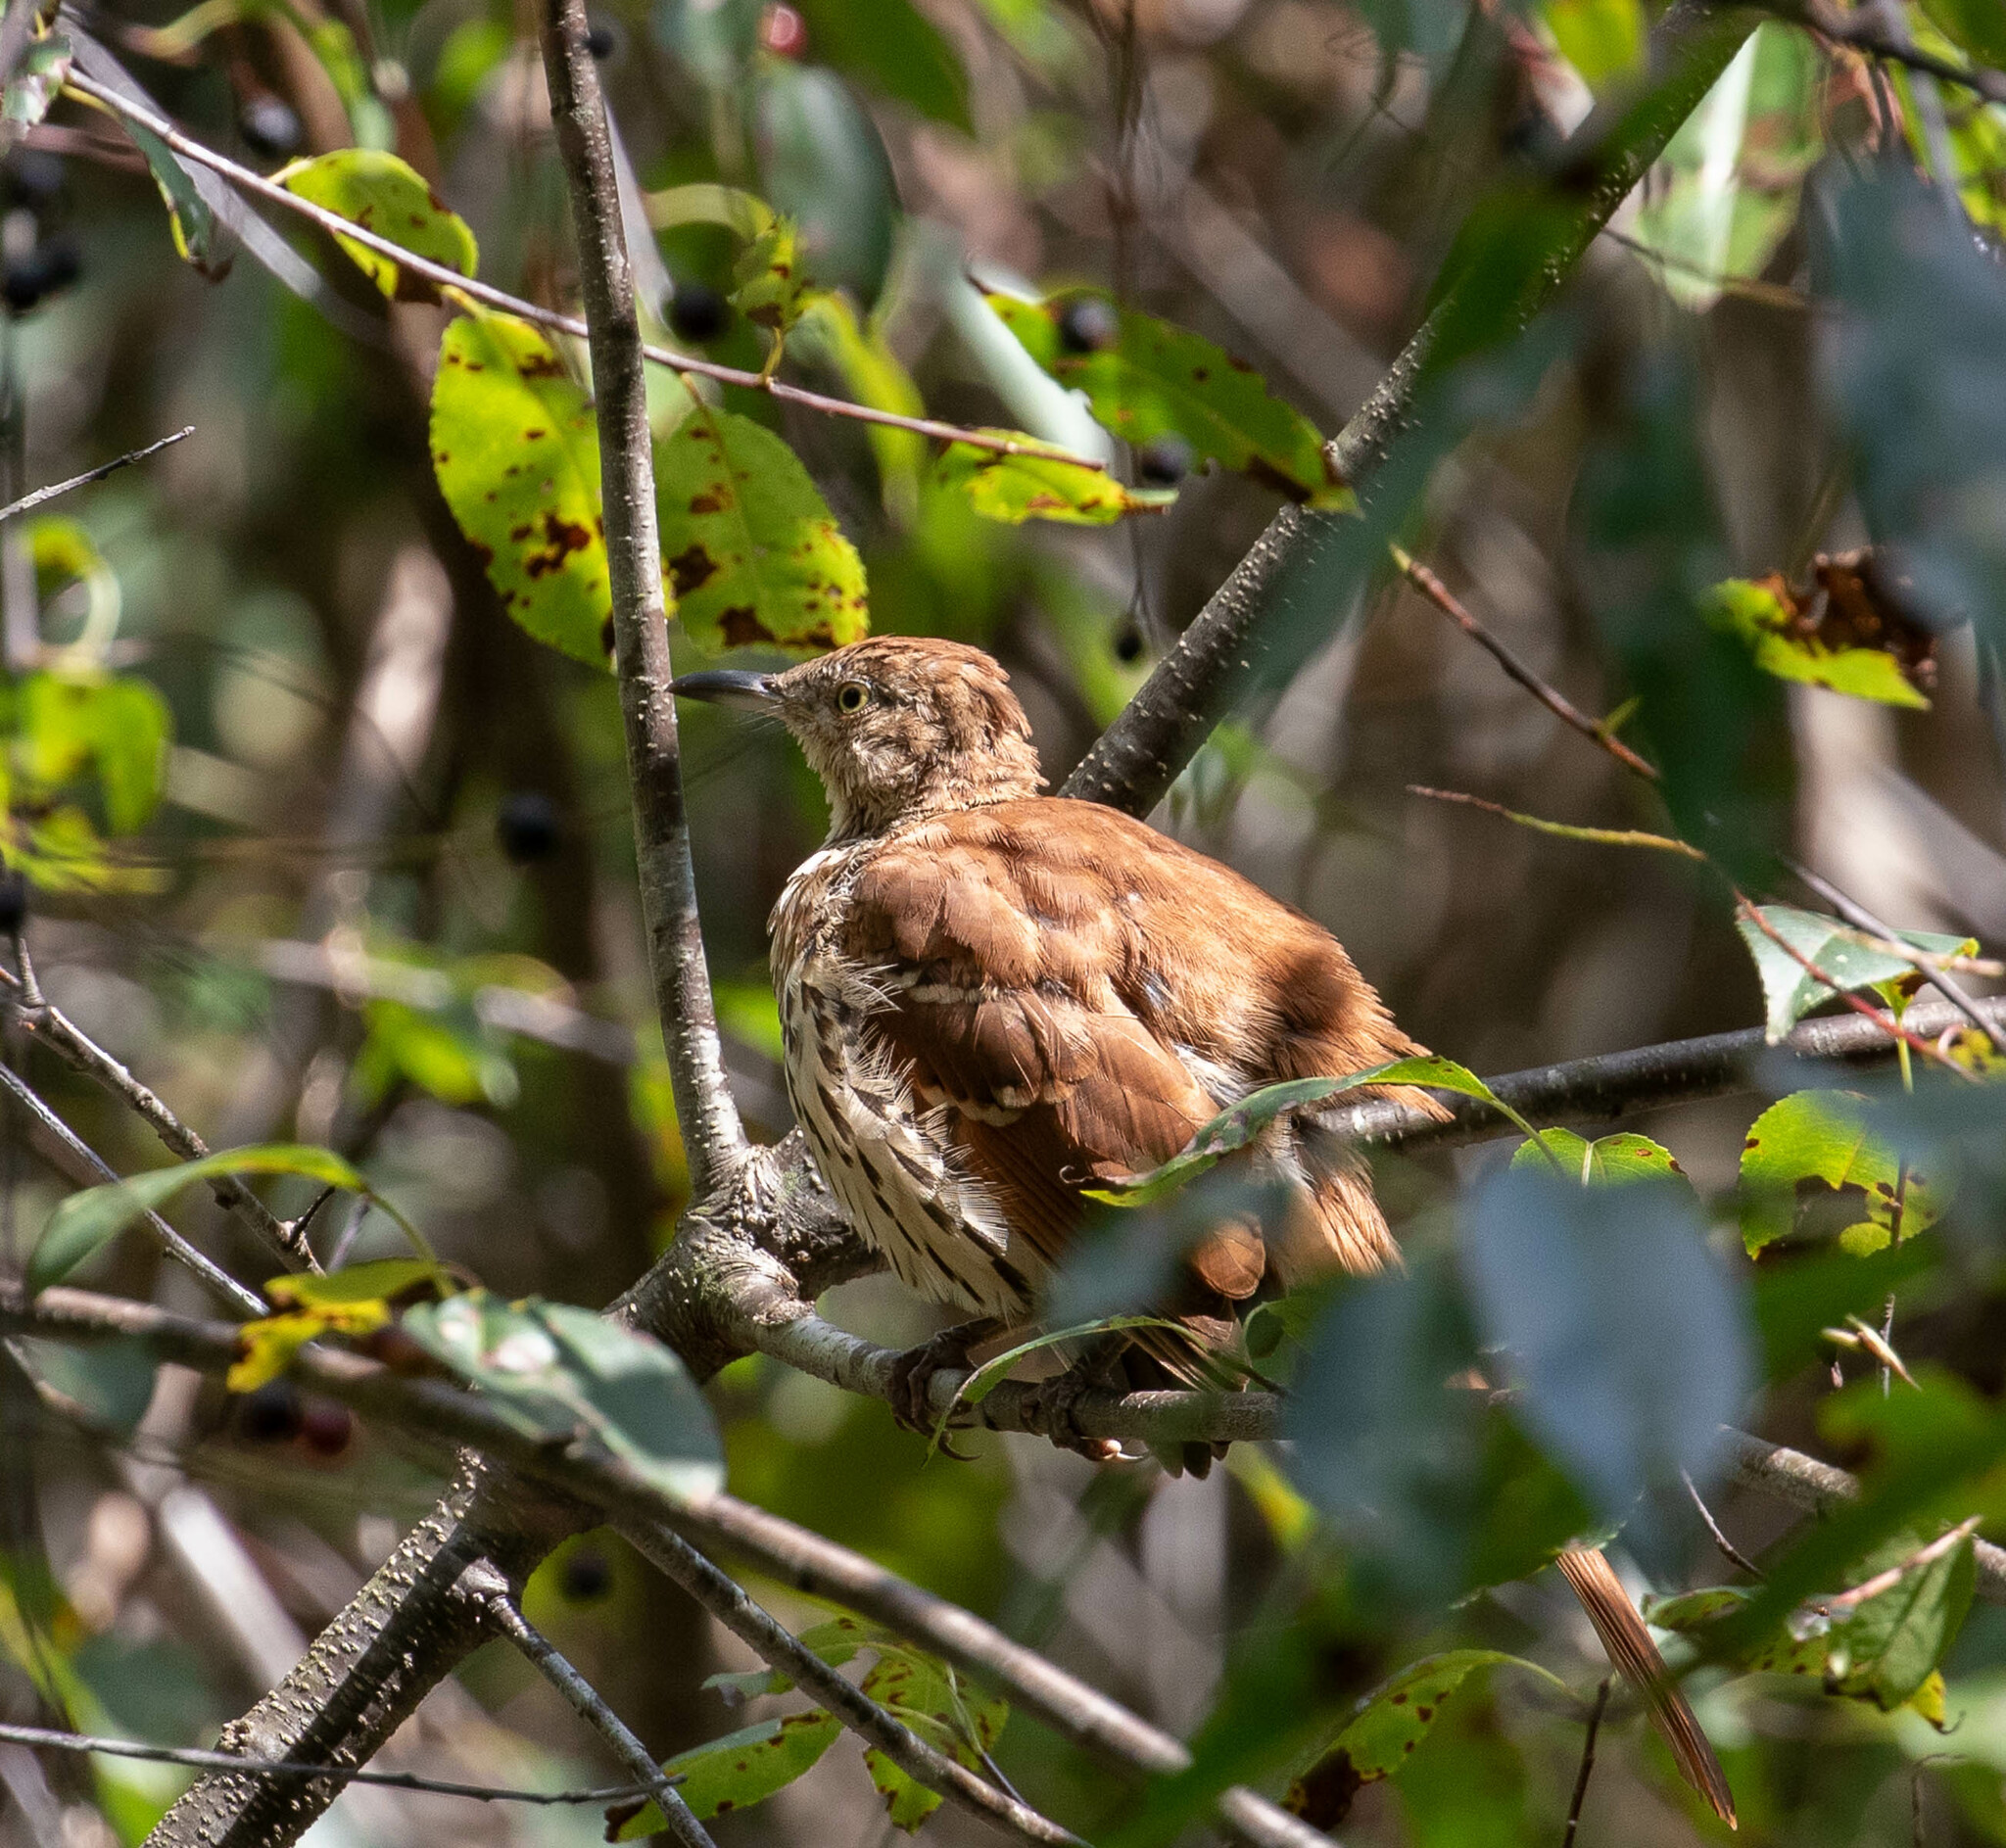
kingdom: Animalia
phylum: Chordata
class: Aves
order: Passeriformes
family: Mimidae
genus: Toxostoma
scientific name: Toxostoma rufum
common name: Brown thrasher
